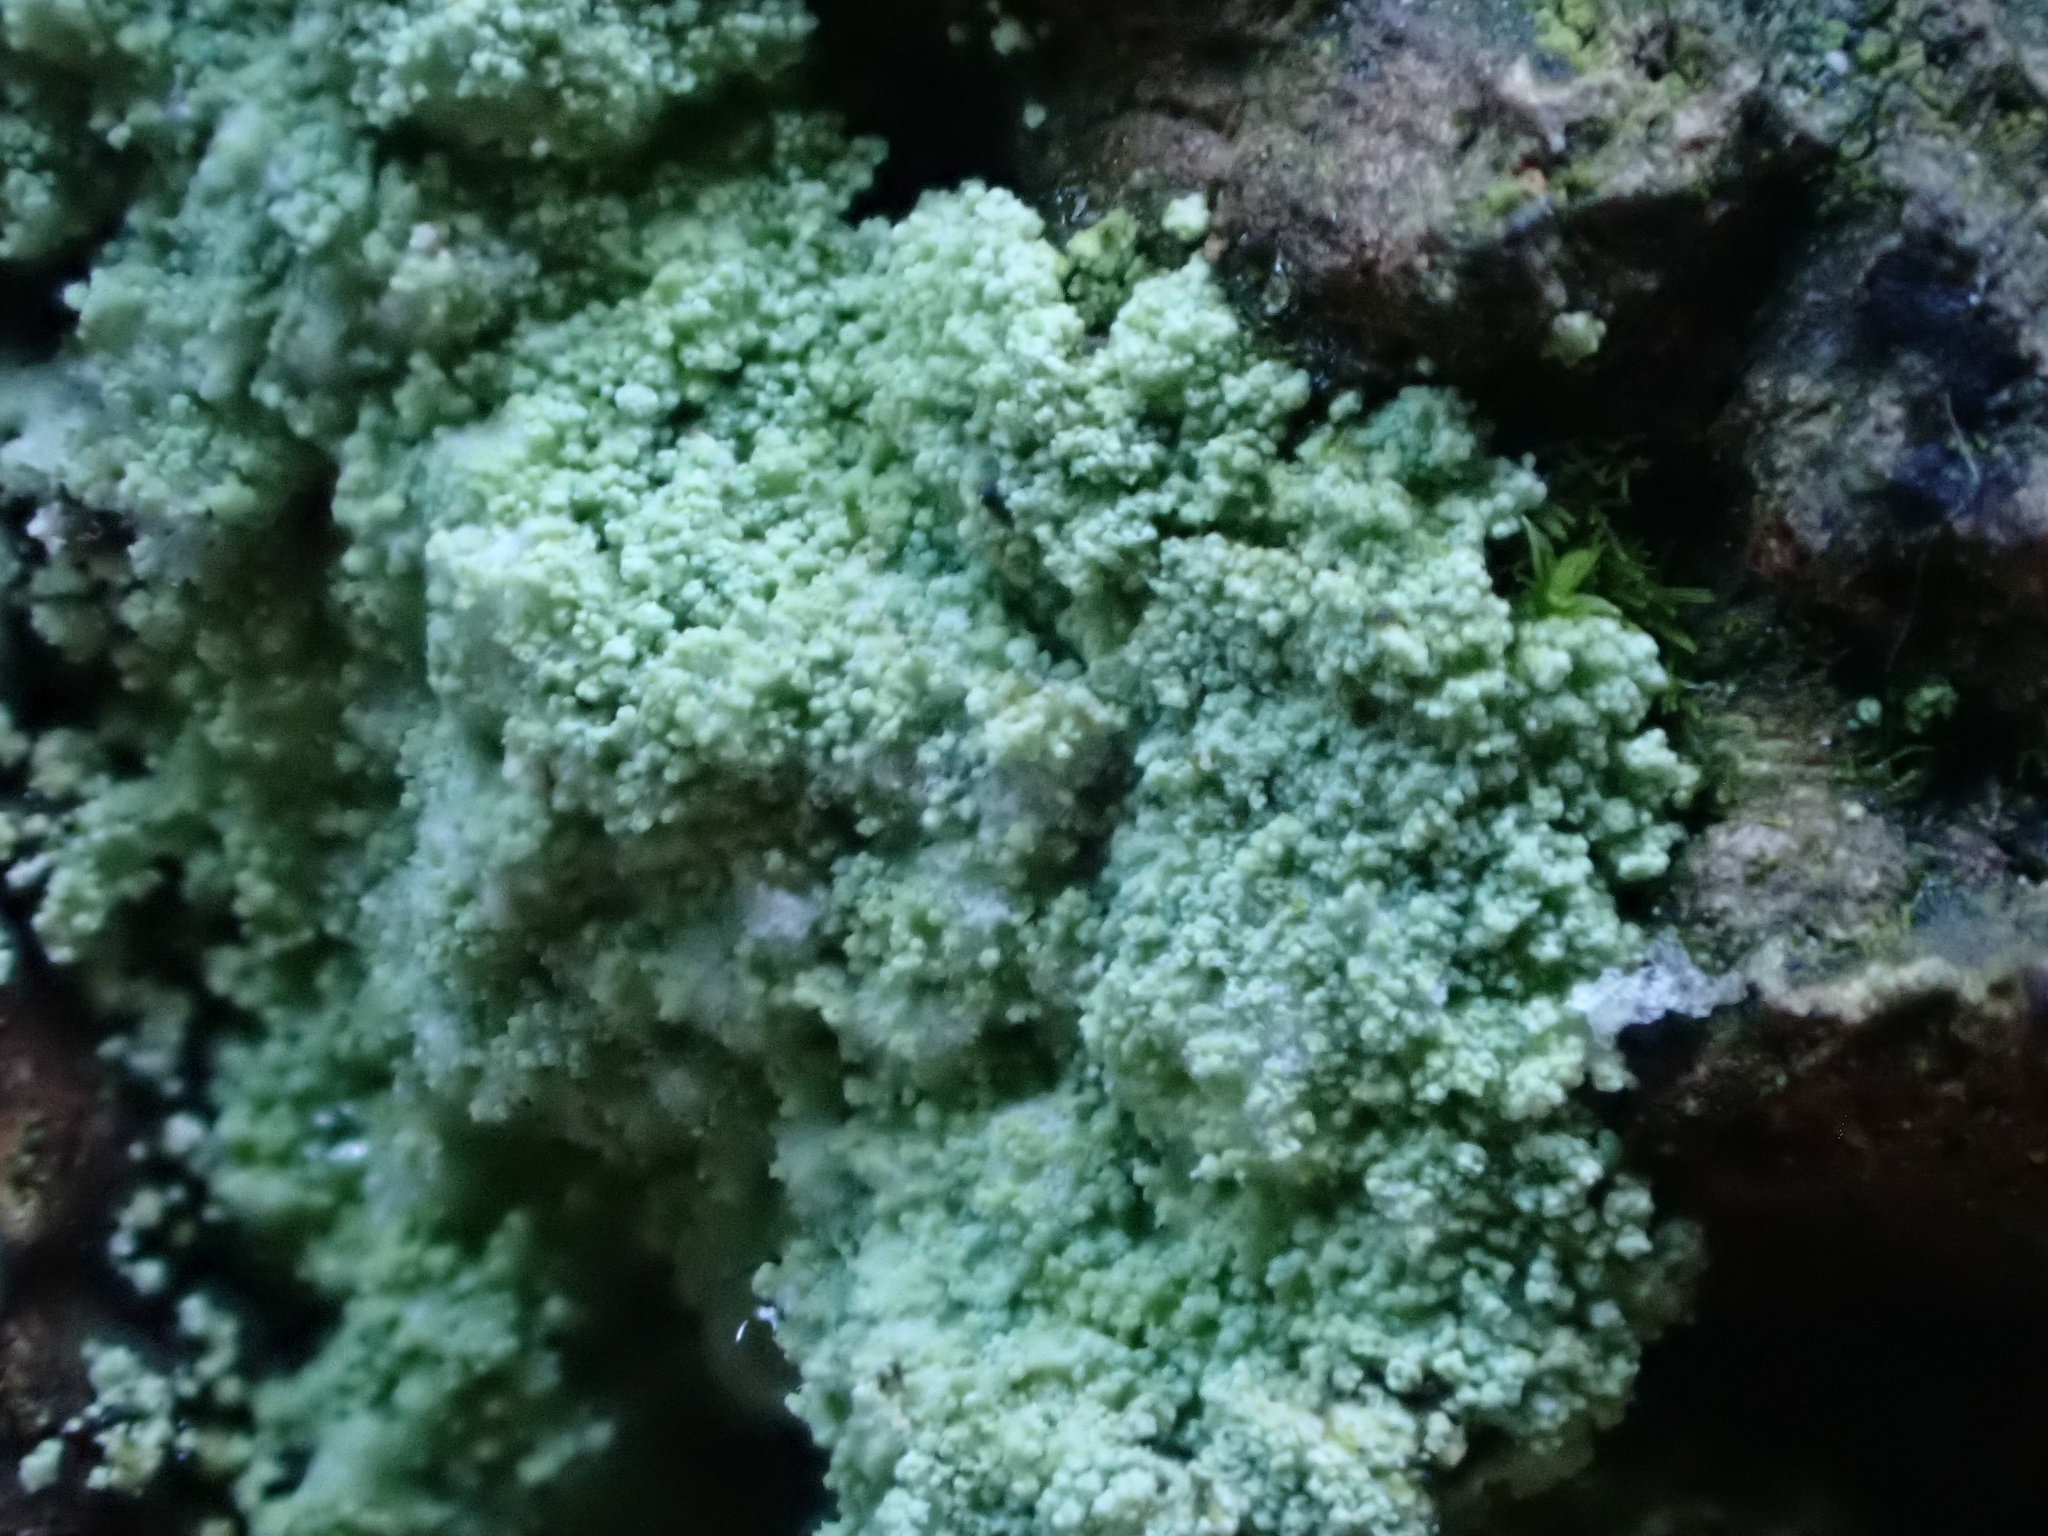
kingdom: Fungi
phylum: Ascomycota
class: Lecanoromycetes
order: Lecanorales
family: Stereocaulaceae
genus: Lepraria
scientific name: Lepraria lobificans
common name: Fluffy dust lichen
